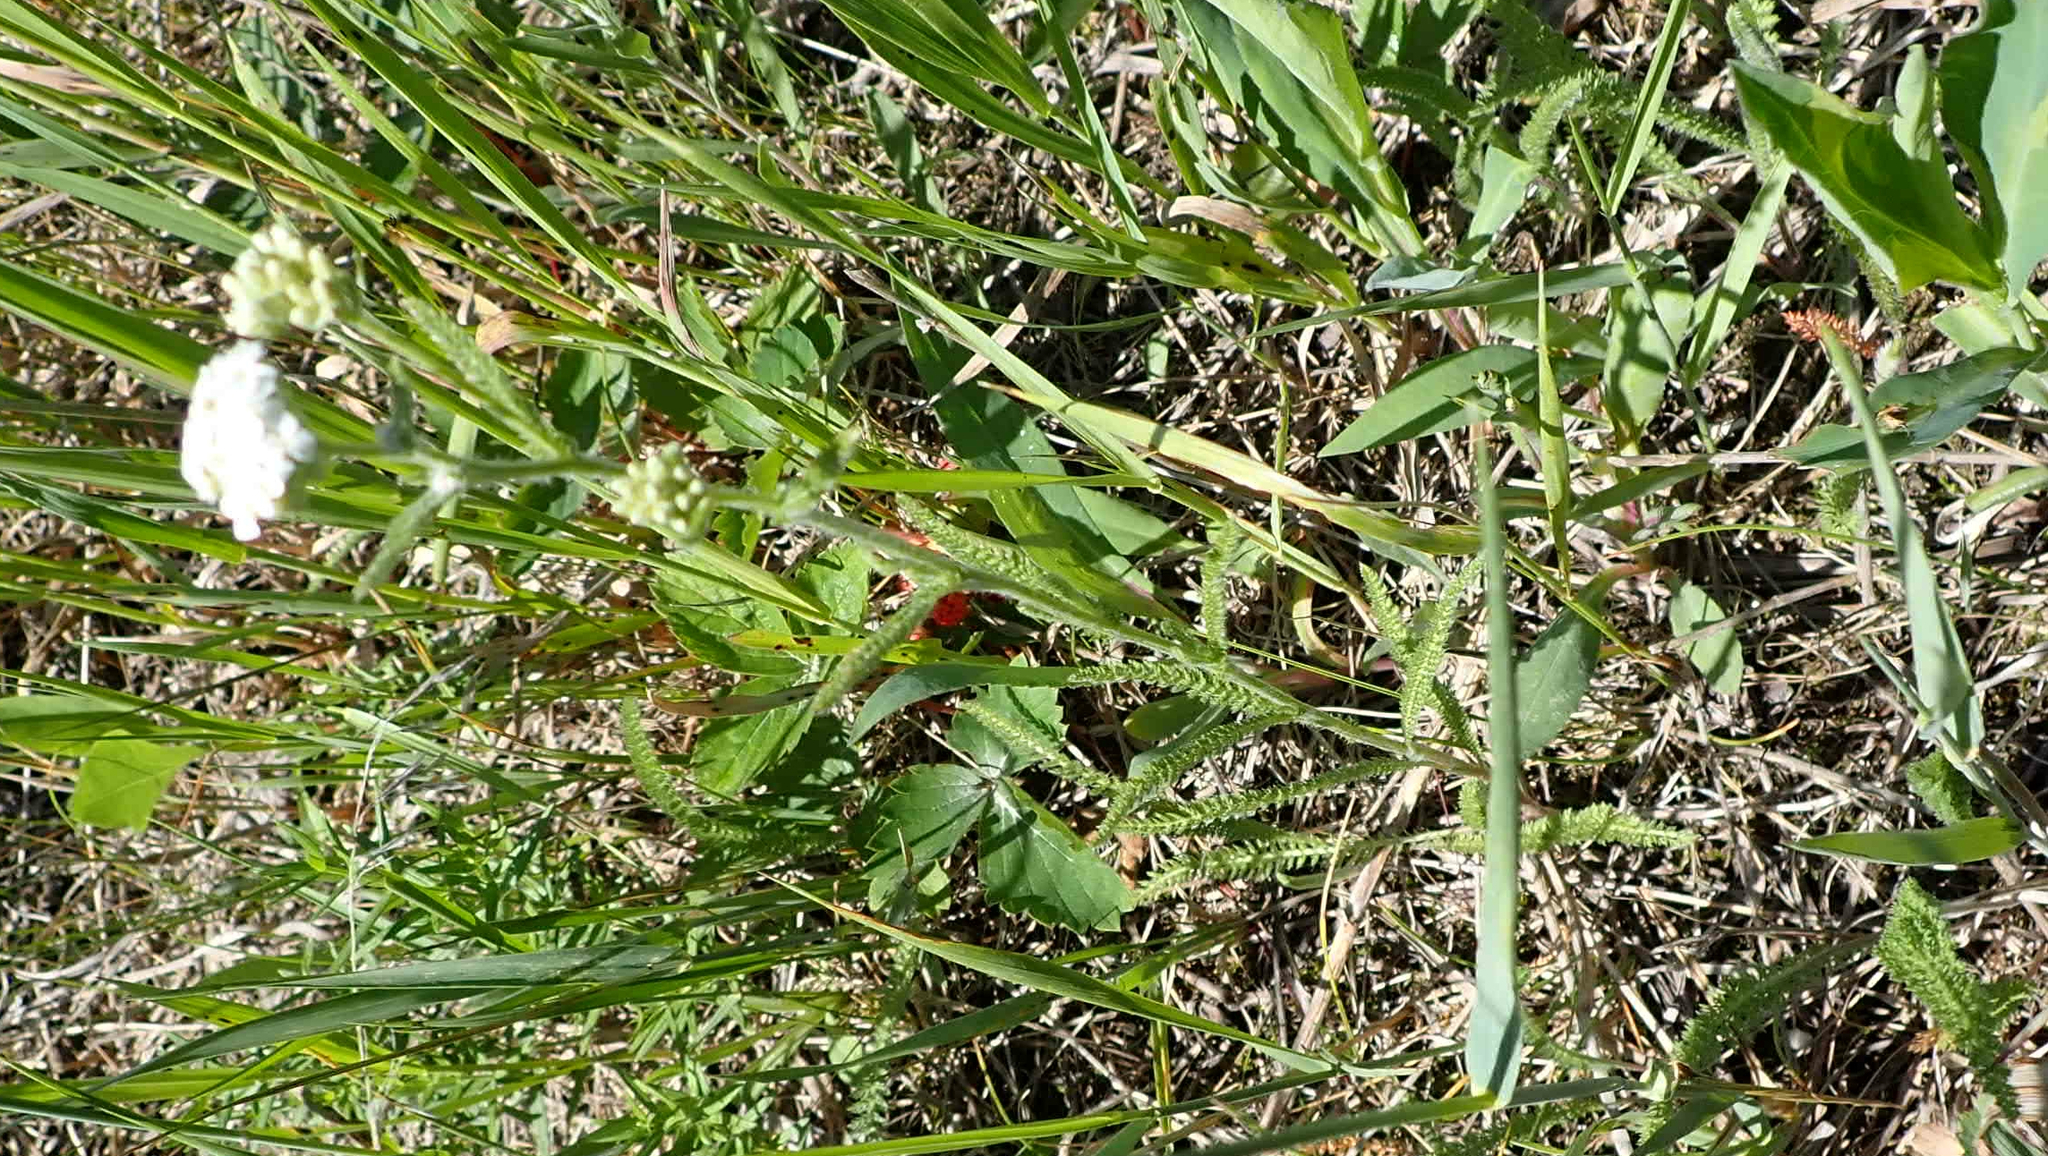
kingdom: Plantae
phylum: Tracheophyta
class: Magnoliopsida
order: Asterales
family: Asteraceae
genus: Achillea
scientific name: Achillea millefolium
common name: Yarrow
